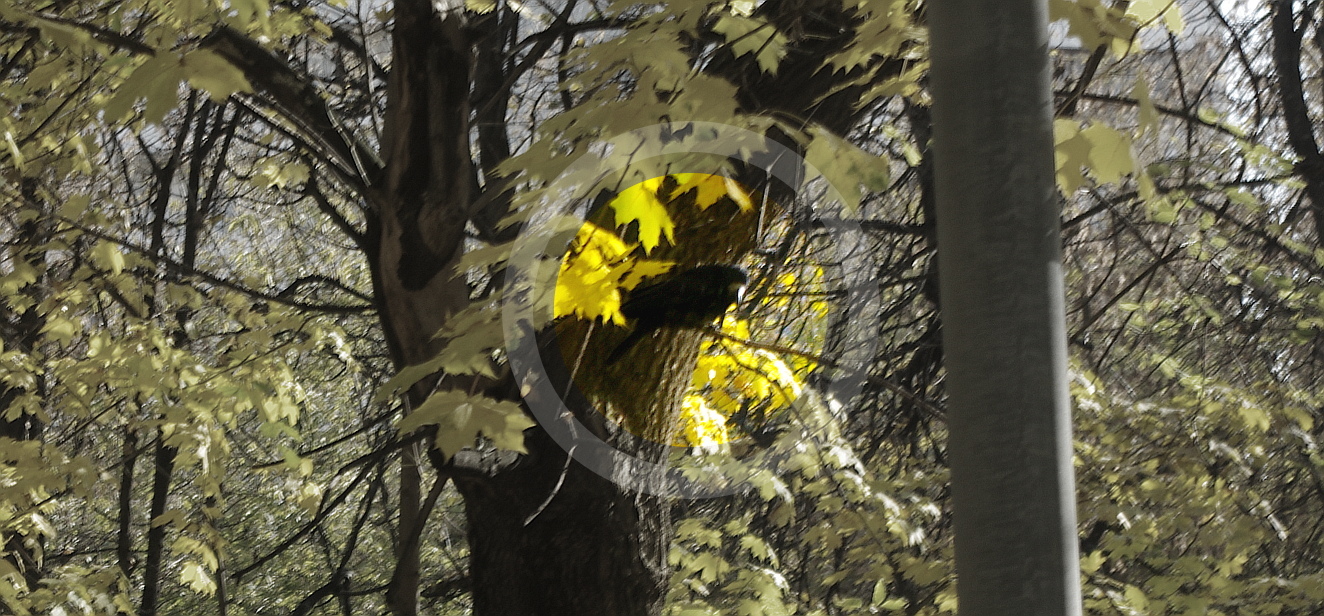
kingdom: Animalia
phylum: Chordata
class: Aves
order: Passeriformes
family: Corvidae
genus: Corvus
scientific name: Corvus frugilegus
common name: Rook
